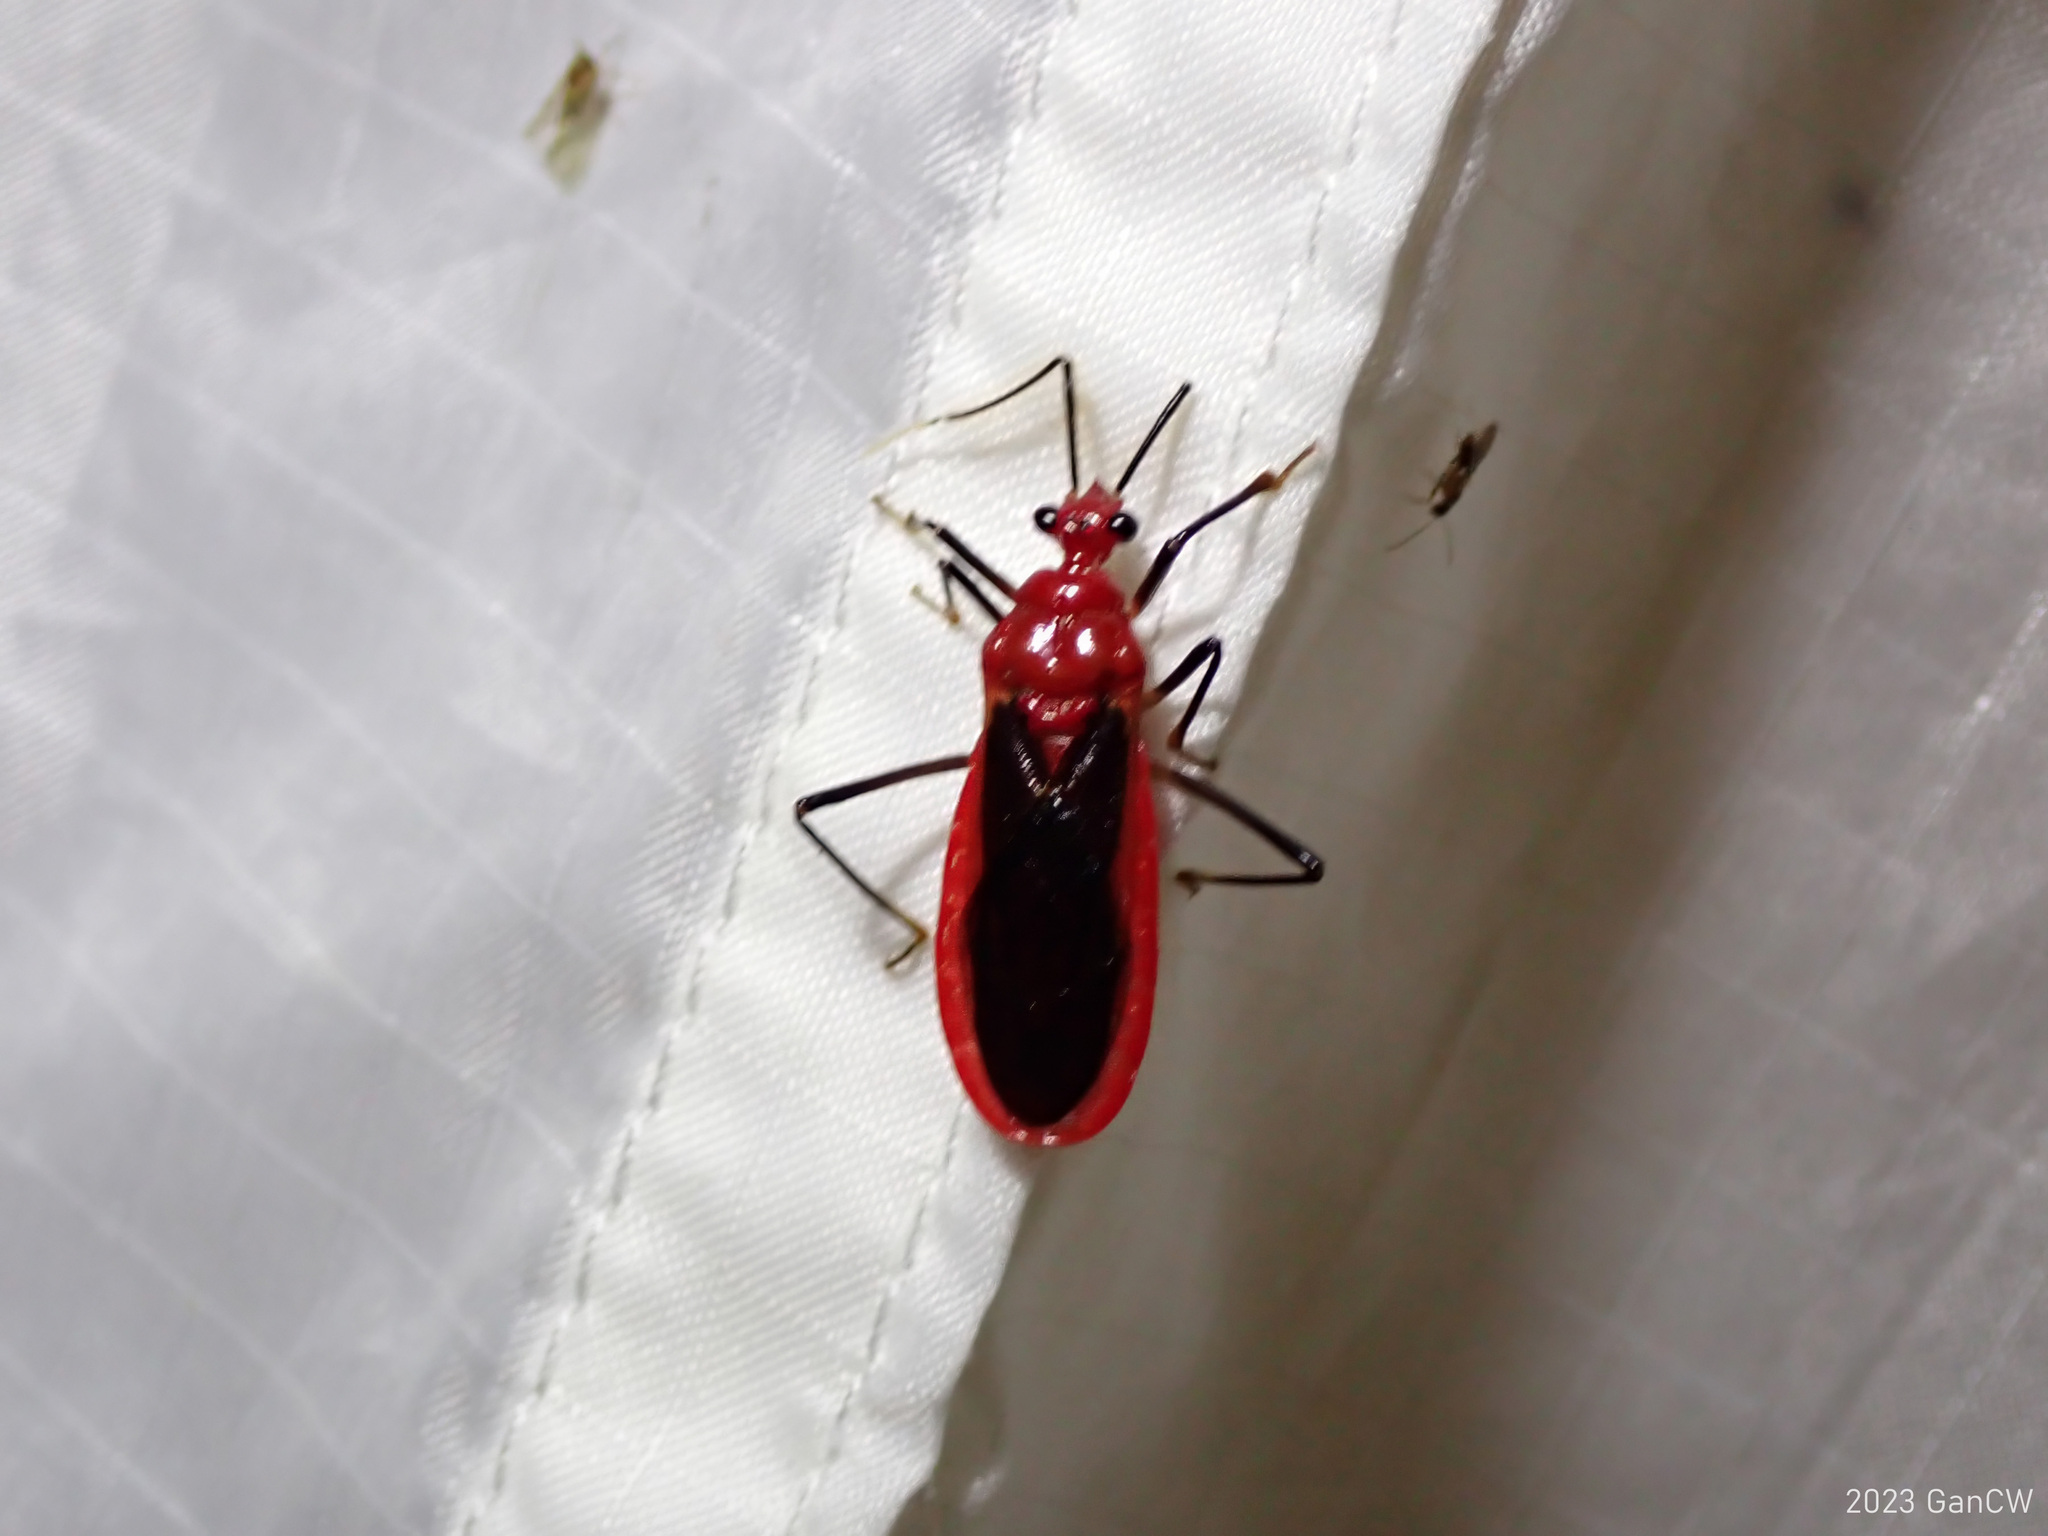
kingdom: Animalia
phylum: Arthropoda
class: Insecta
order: Hemiptera
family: Reduviidae
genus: Vilius
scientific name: Vilius melanopterus
